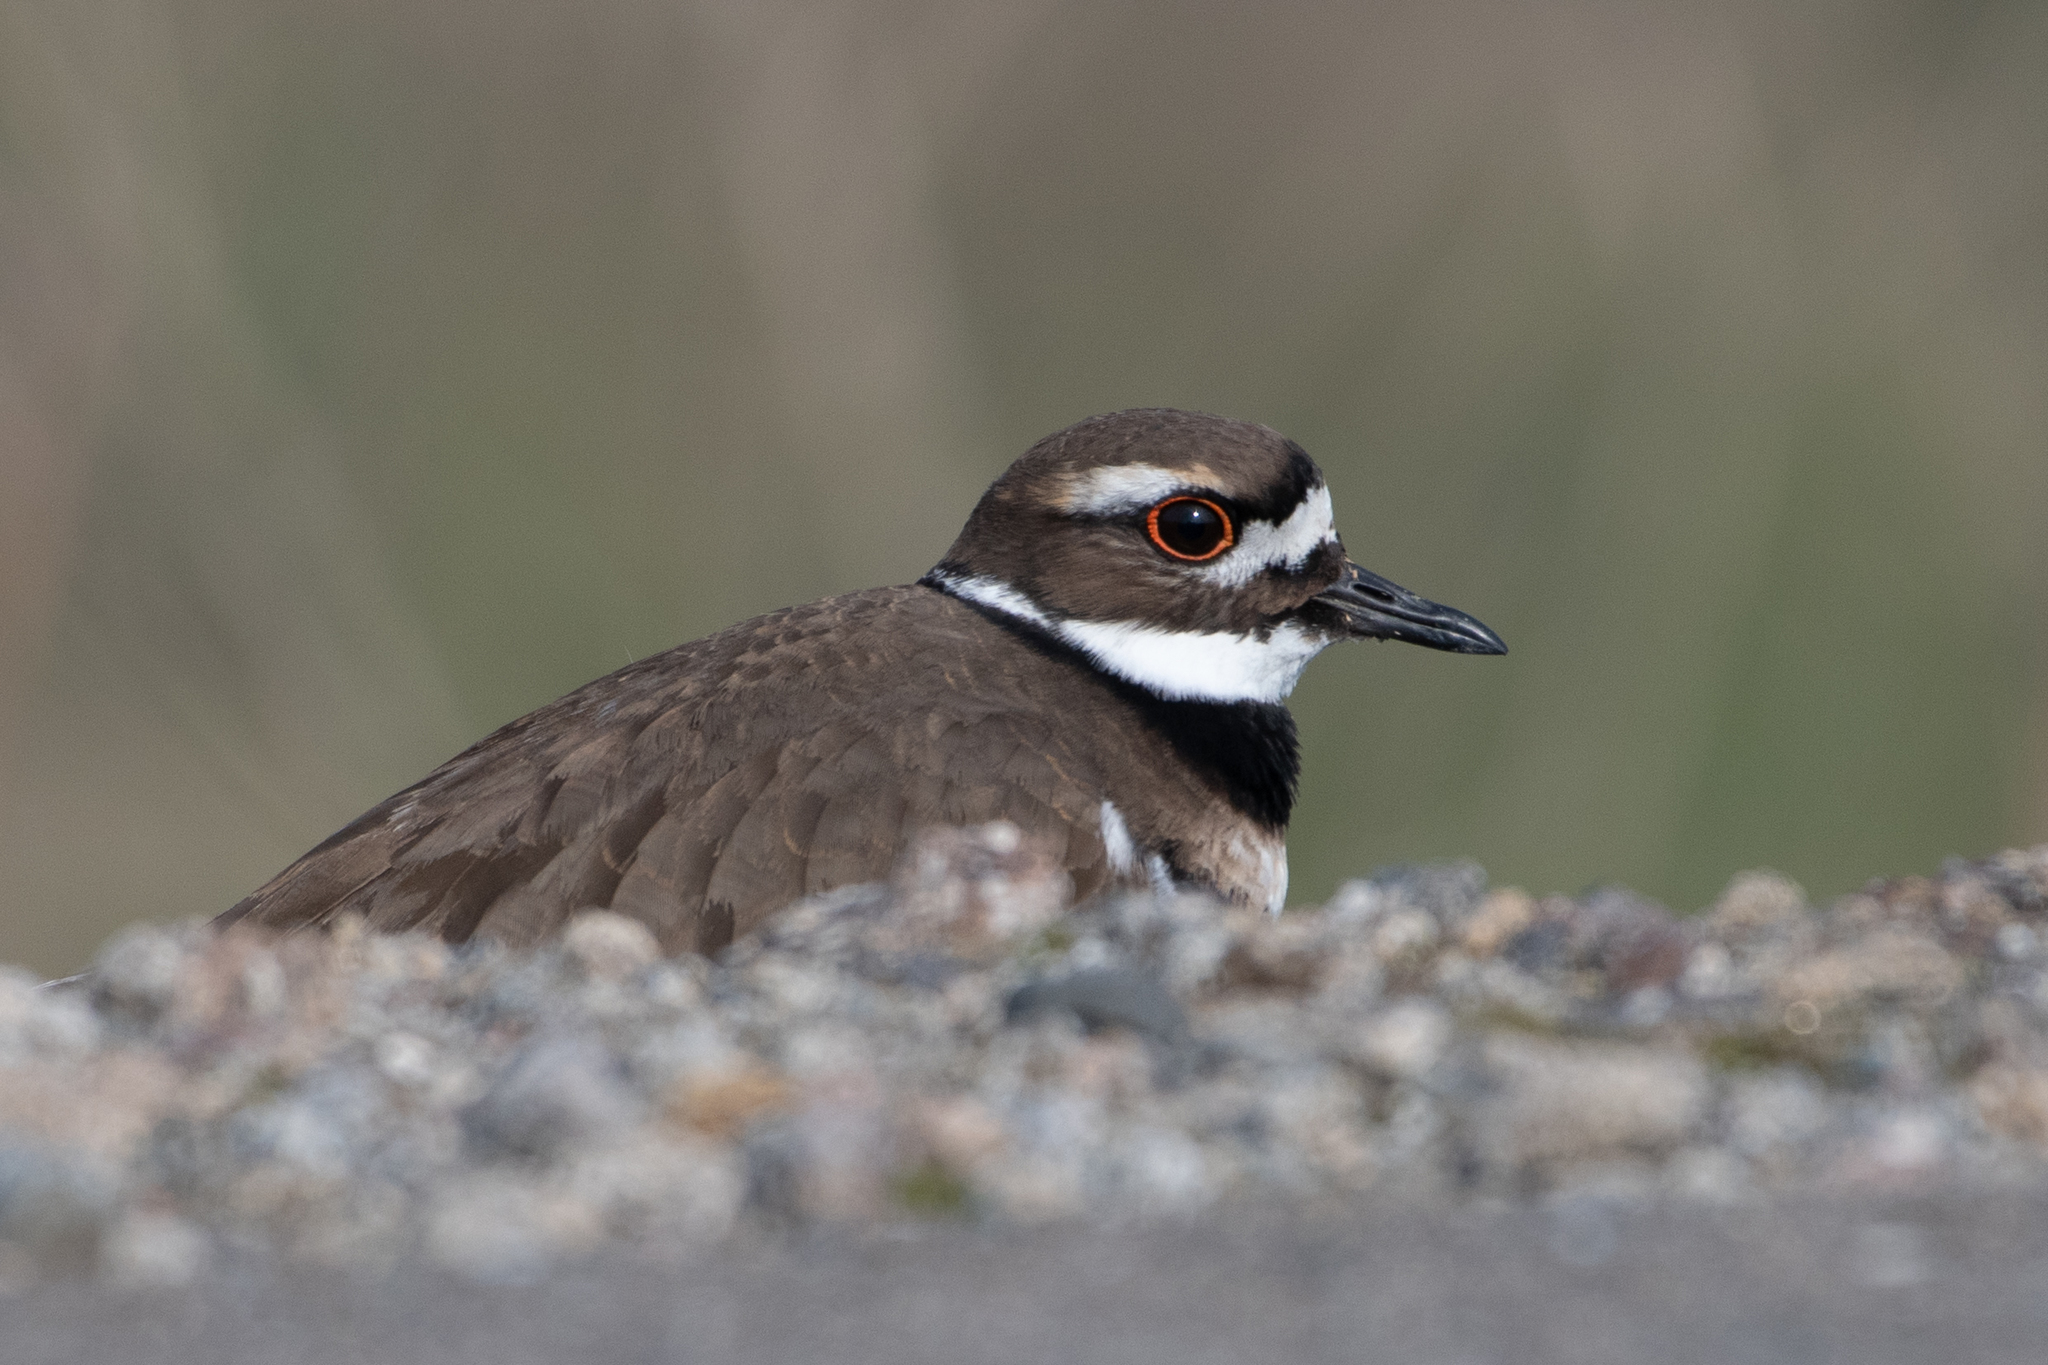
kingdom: Animalia
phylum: Chordata
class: Aves
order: Charadriiformes
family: Charadriidae
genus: Charadrius
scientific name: Charadrius vociferus
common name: Killdeer
